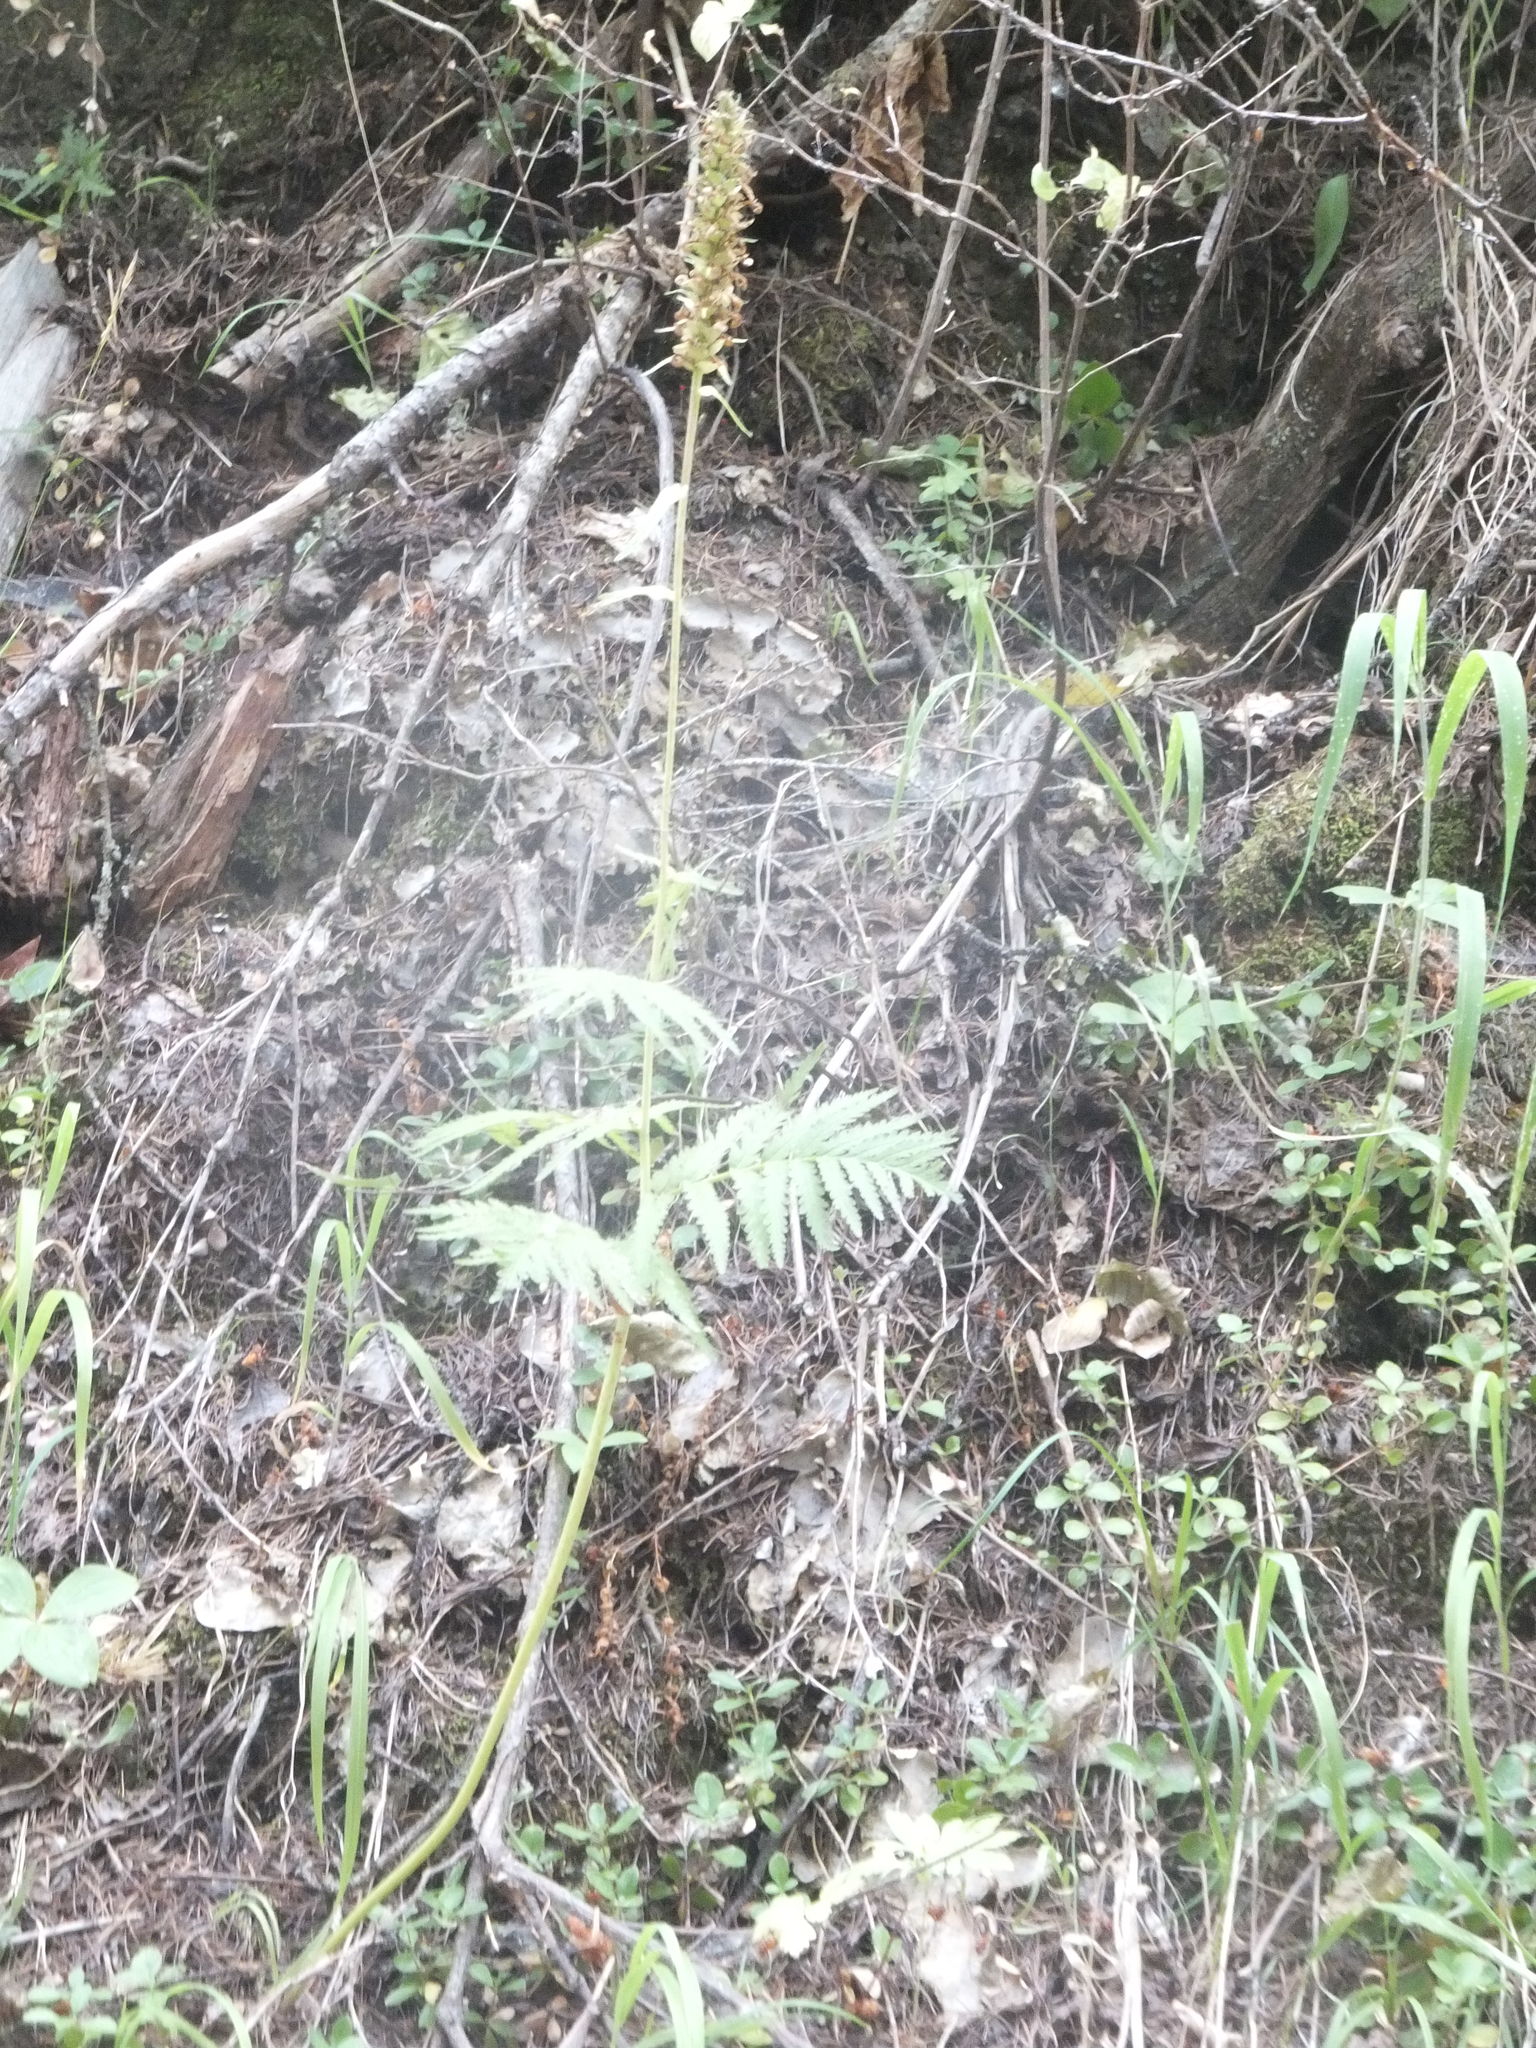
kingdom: Plantae
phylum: Tracheophyta
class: Magnoliopsida
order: Lamiales
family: Orobanchaceae
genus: Pedicularis
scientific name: Pedicularis bracteosa
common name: Bracted lousewort
